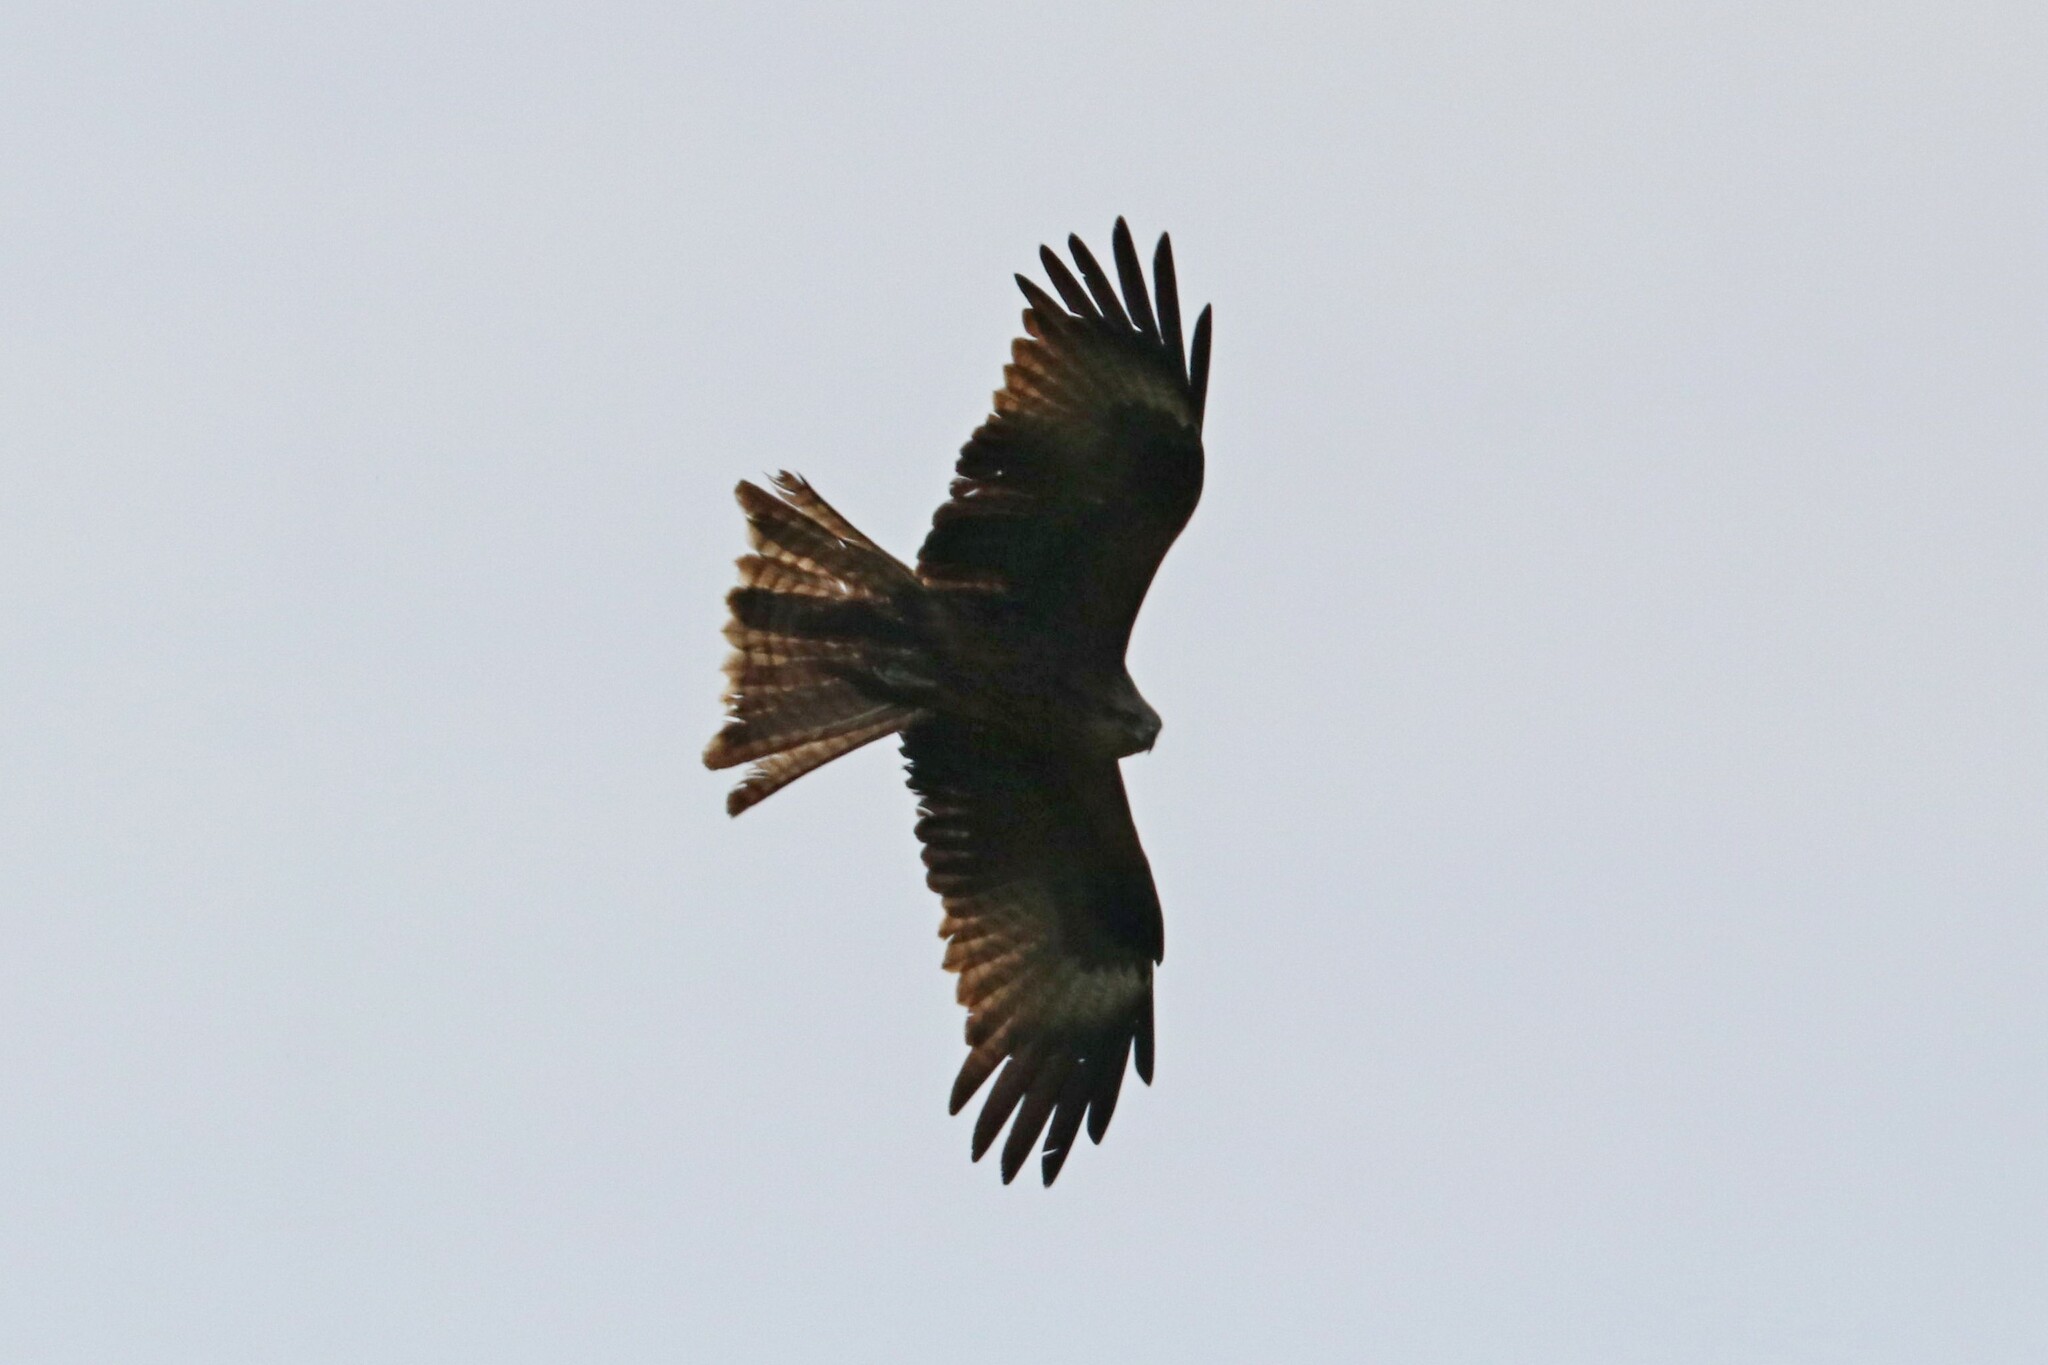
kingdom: Animalia
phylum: Chordata
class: Aves
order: Accipitriformes
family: Accipitridae
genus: Milvus
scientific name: Milvus migrans
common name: Black kite
